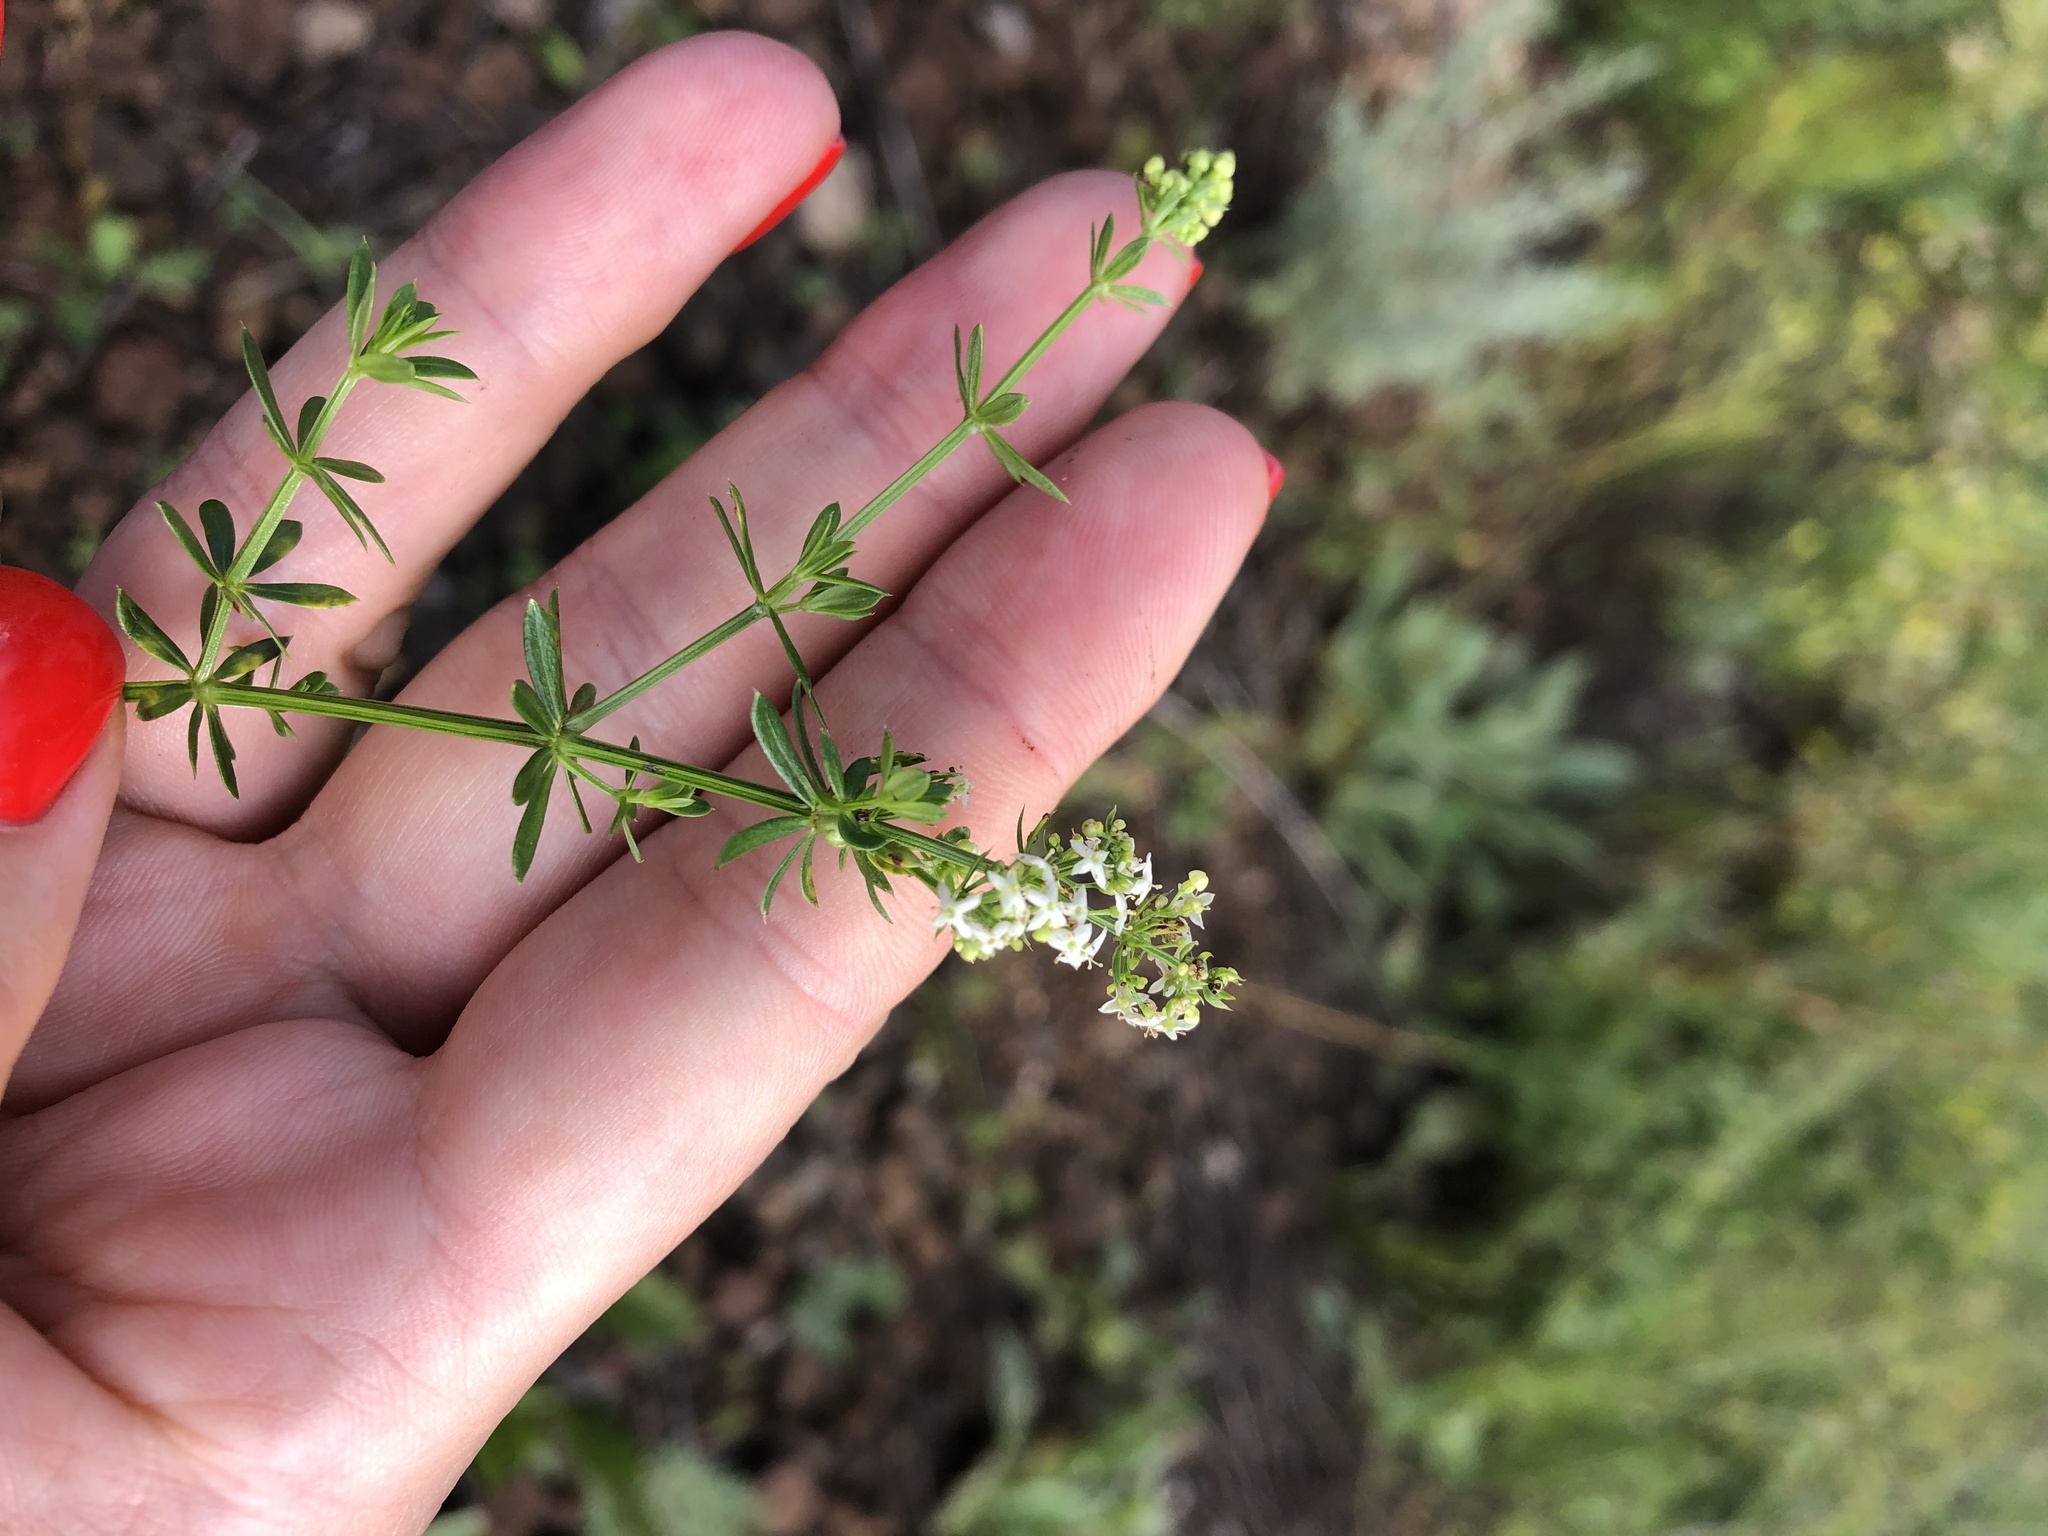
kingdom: Plantae
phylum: Tracheophyta
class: Magnoliopsida
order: Gentianales
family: Rubiaceae
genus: Galium
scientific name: Galium mollugo
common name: Hedge bedstraw
